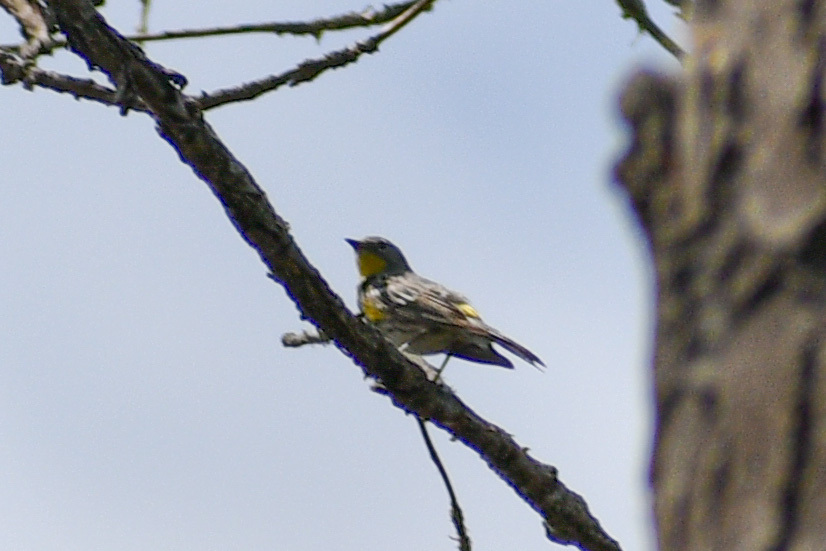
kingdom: Animalia
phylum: Chordata
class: Aves
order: Passeriformes
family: Parulidae
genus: Setophaga
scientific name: Setophaga auduboni
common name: Audubon's warbler
